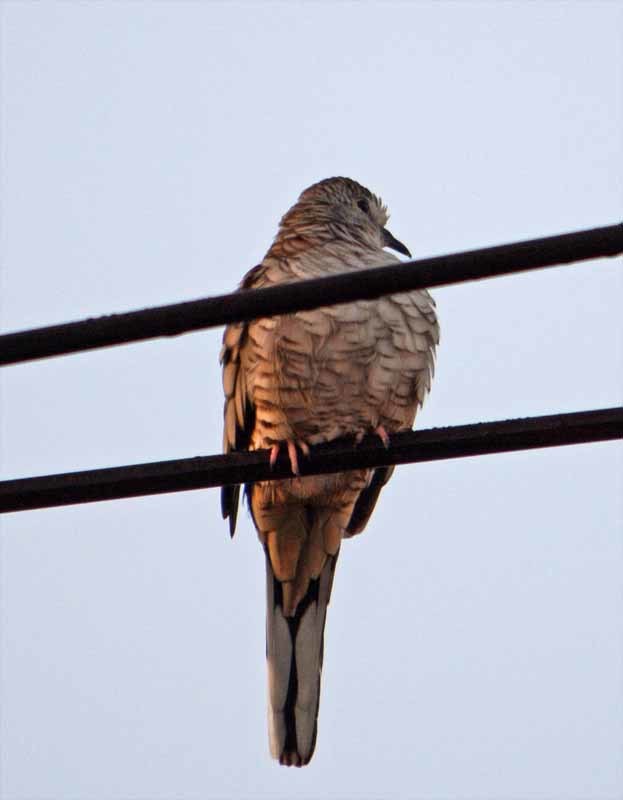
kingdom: Animalia
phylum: Chordata
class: Aves
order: Columbiformes
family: Columbidae
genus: Columbina
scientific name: Columbina inca
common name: Inca dove
